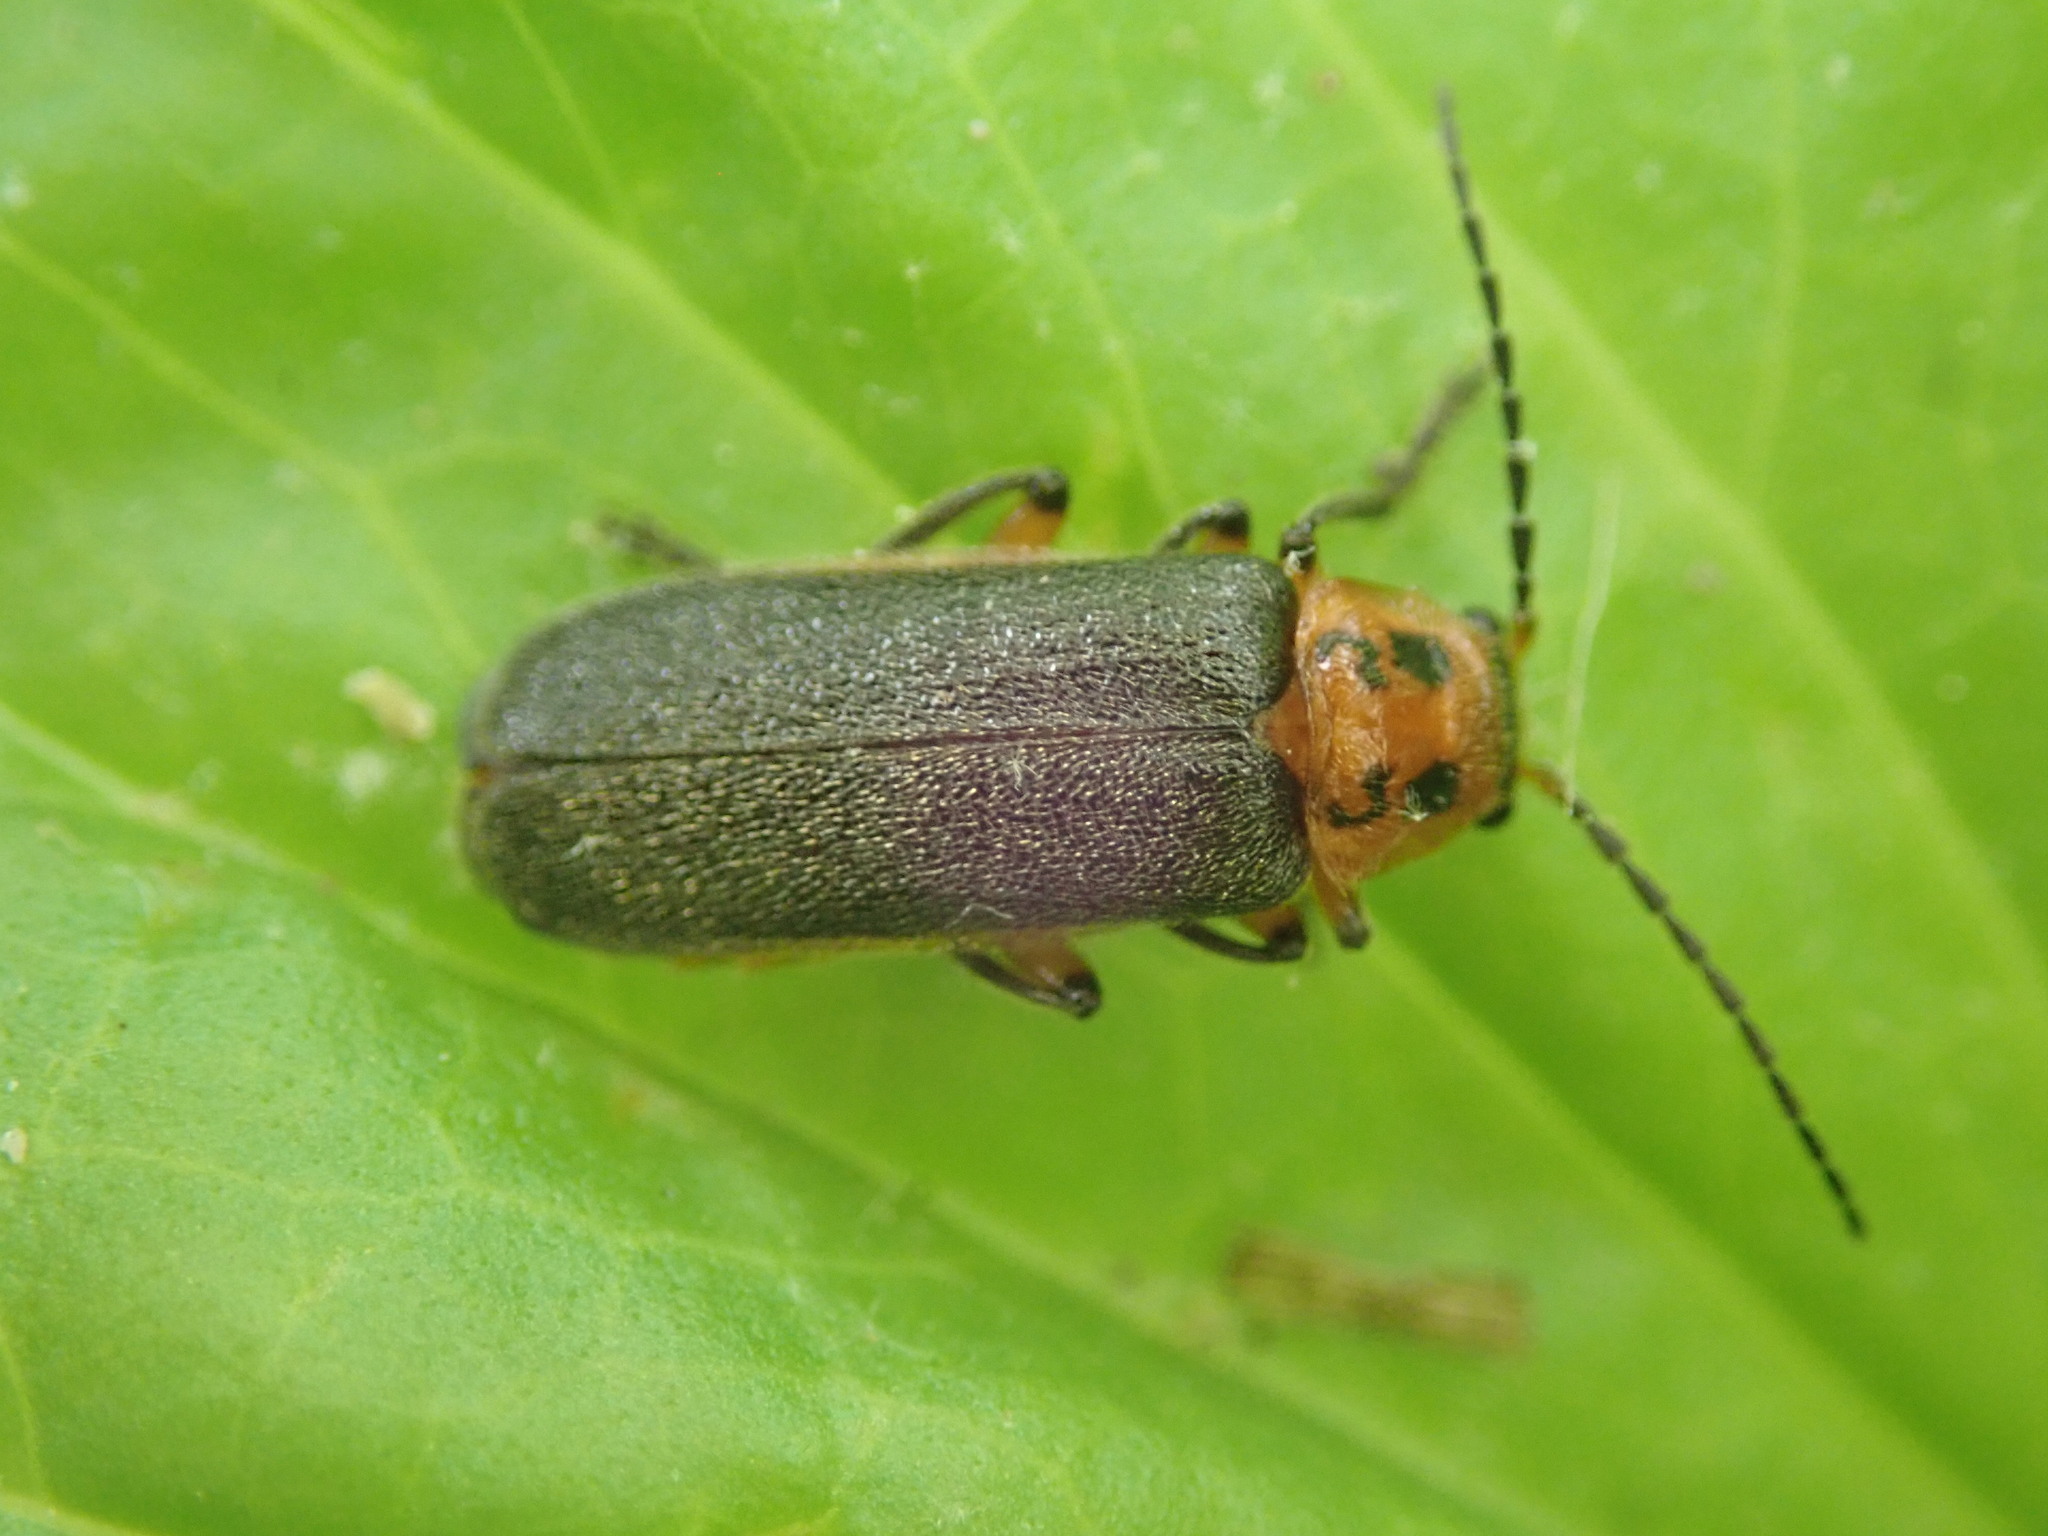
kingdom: Animalia
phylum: Arthropoda
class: Insecta
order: Coleoptera
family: Cantharidae
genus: Atalantycha
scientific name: Atalantycha bilineata
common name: Two-lined leatherwing
